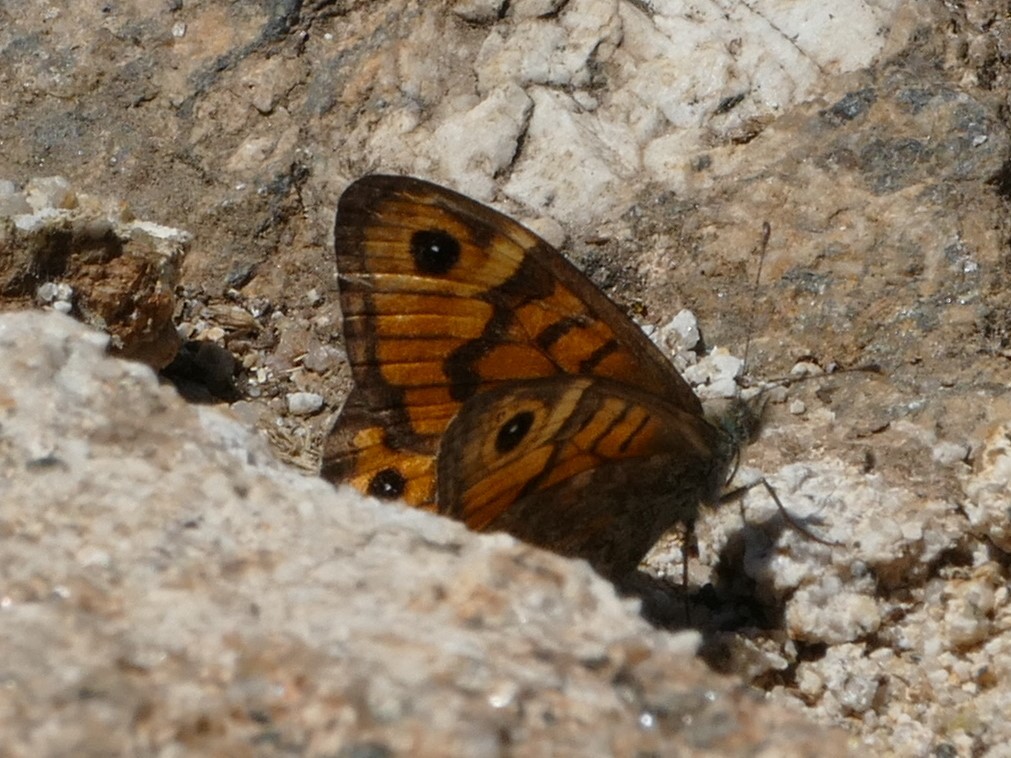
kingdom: Animalia
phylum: Arthropoda
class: Insecta
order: Lepidoptera
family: Nymphalidae
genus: Pararge
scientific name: Pararge Lasiommata megera
